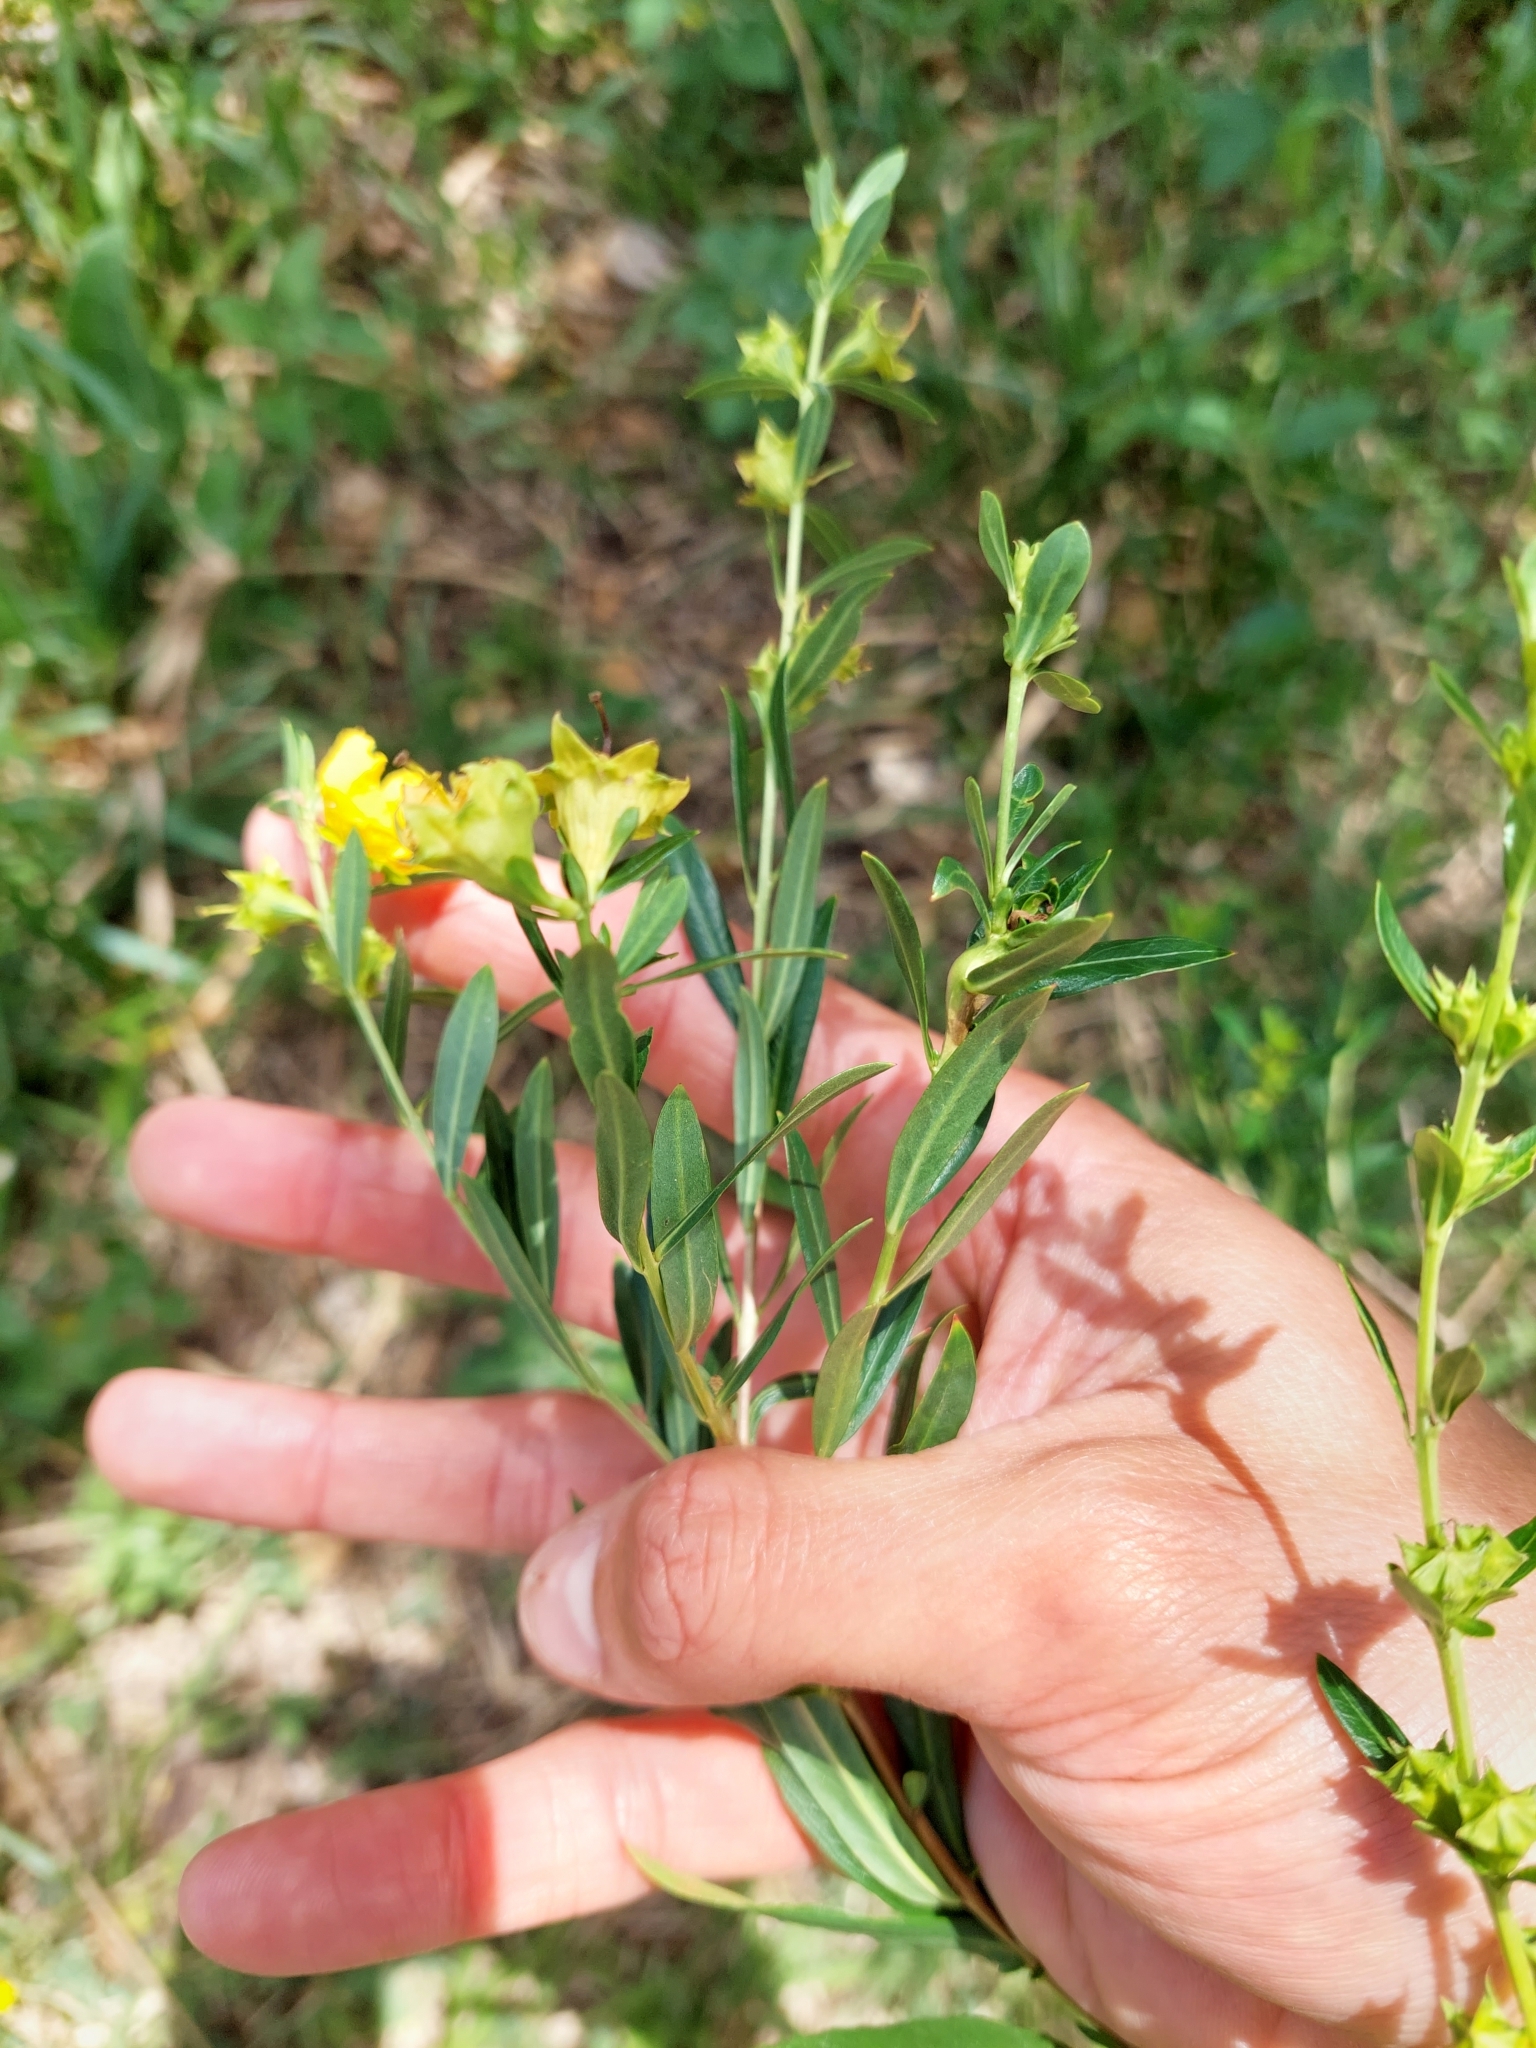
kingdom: Plantae
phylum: Tracheophyta
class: Magnoliopsida
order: Myrtales
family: Lythraceae
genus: Heimia
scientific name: Heimia salicifolia
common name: Willow-leaf heimia
